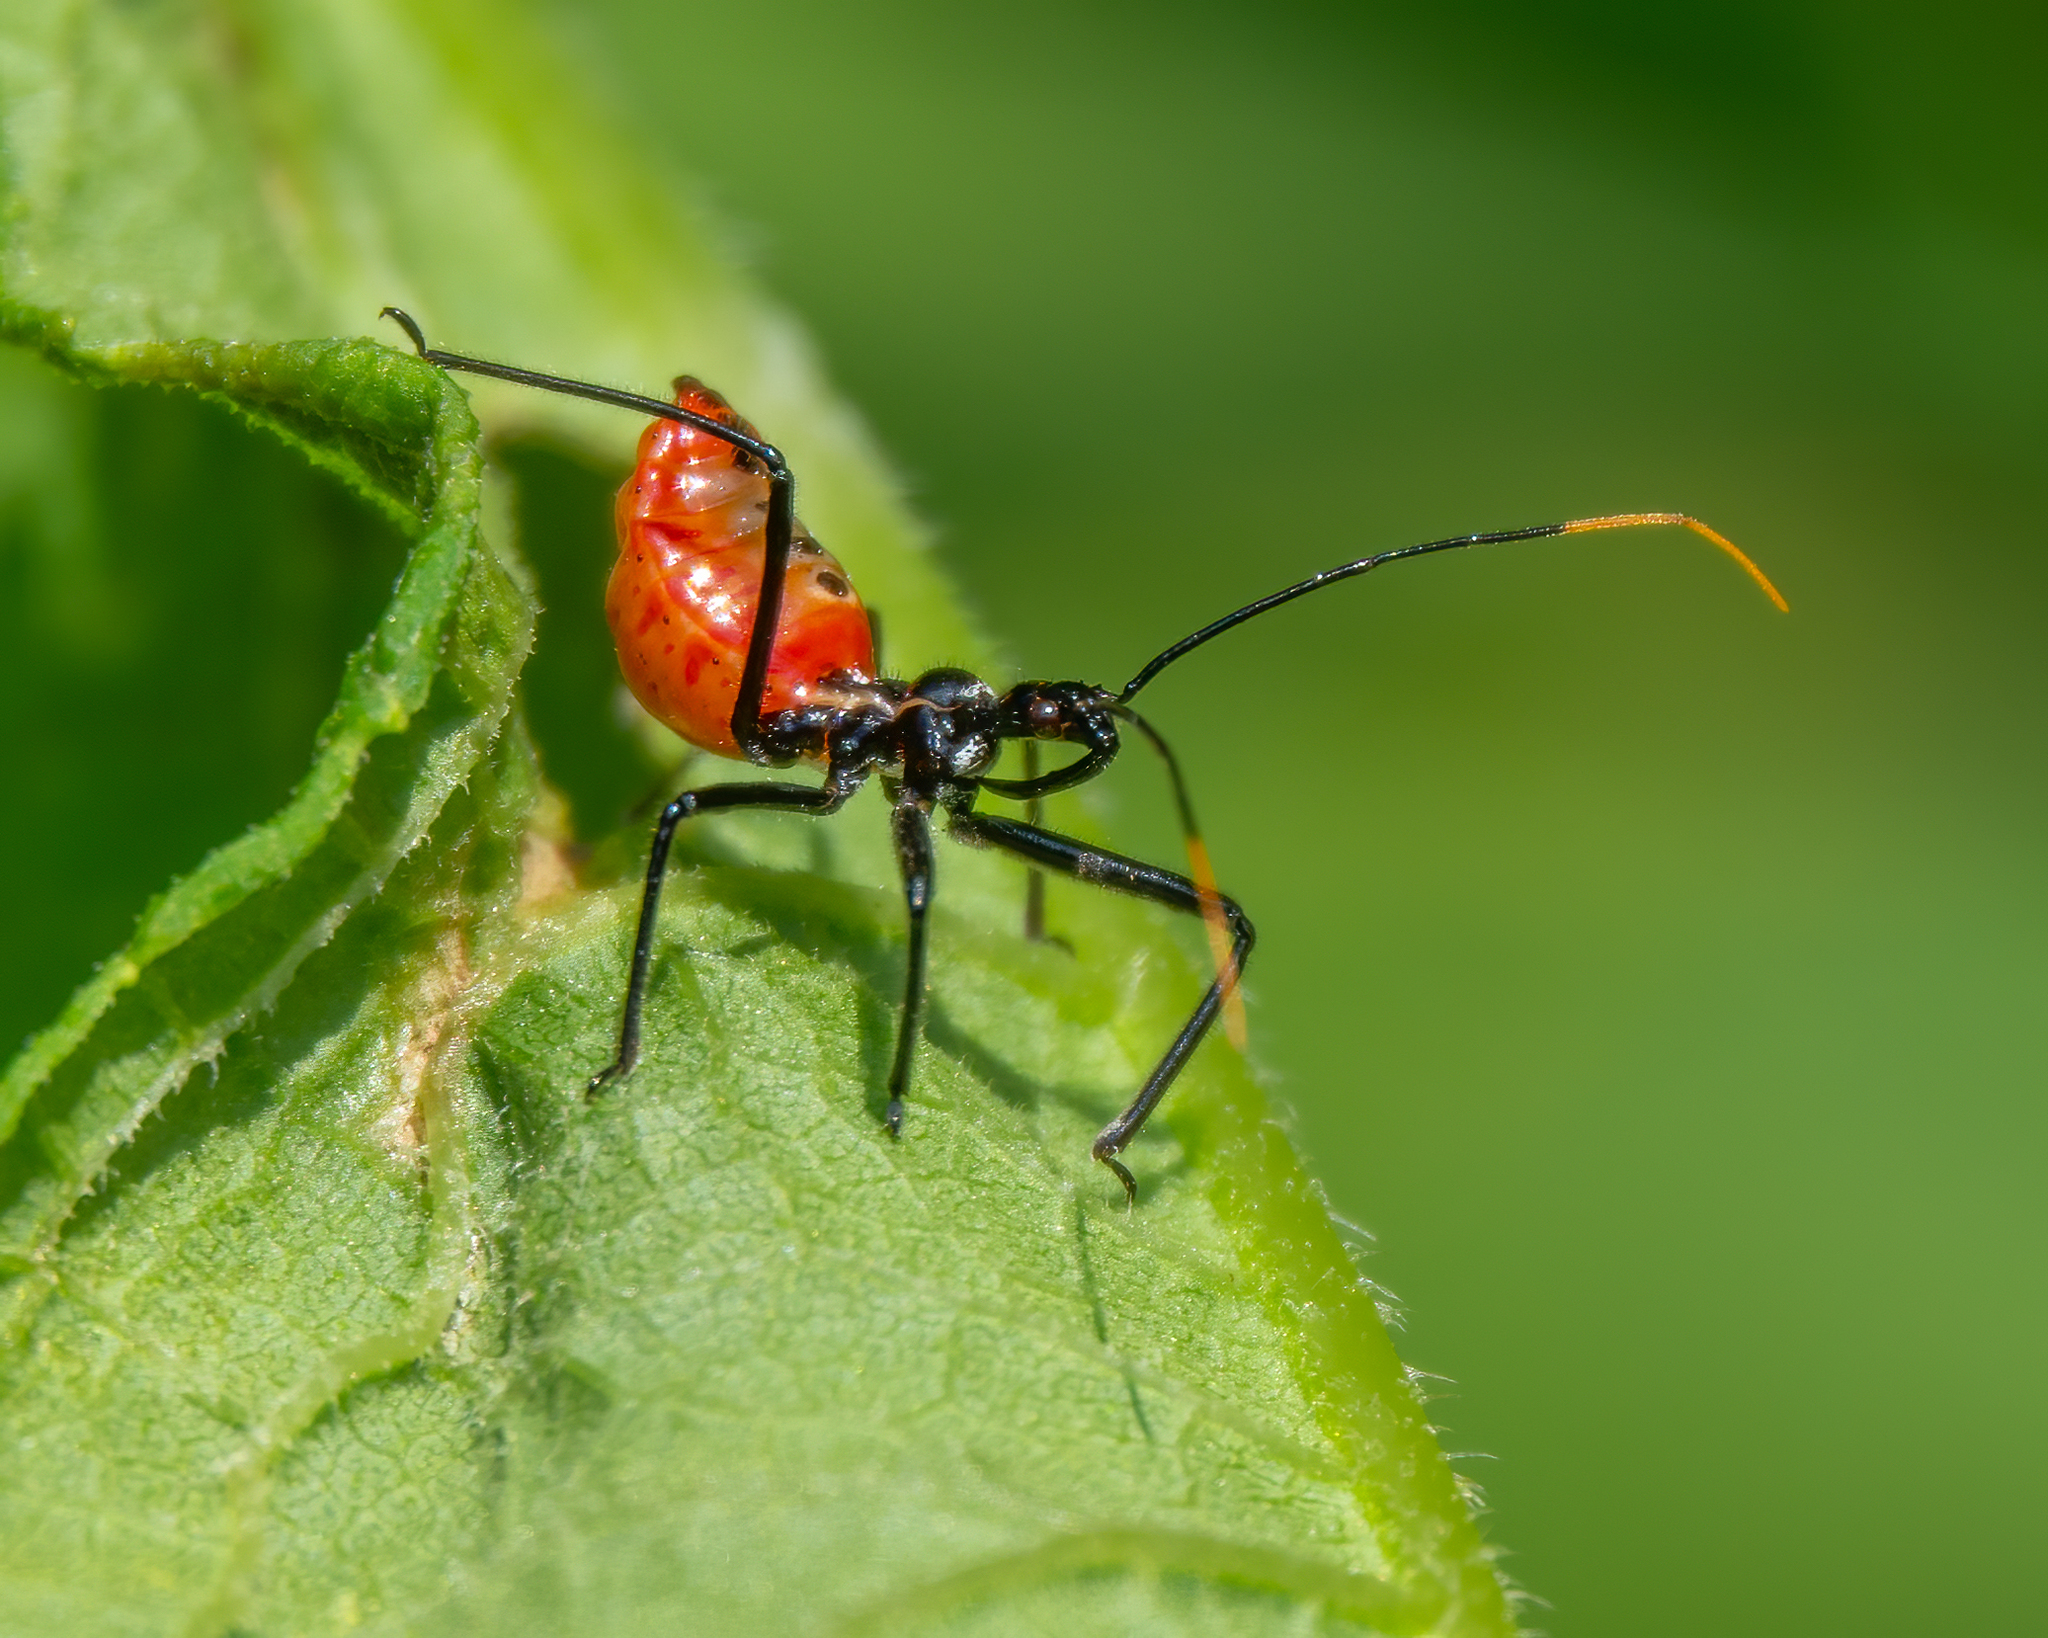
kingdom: Animalia
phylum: Arthropoda
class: Insecta
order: Hemiptera
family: Reduviidae
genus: Arilus
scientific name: Arilus cristatus
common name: North american wheel bug
